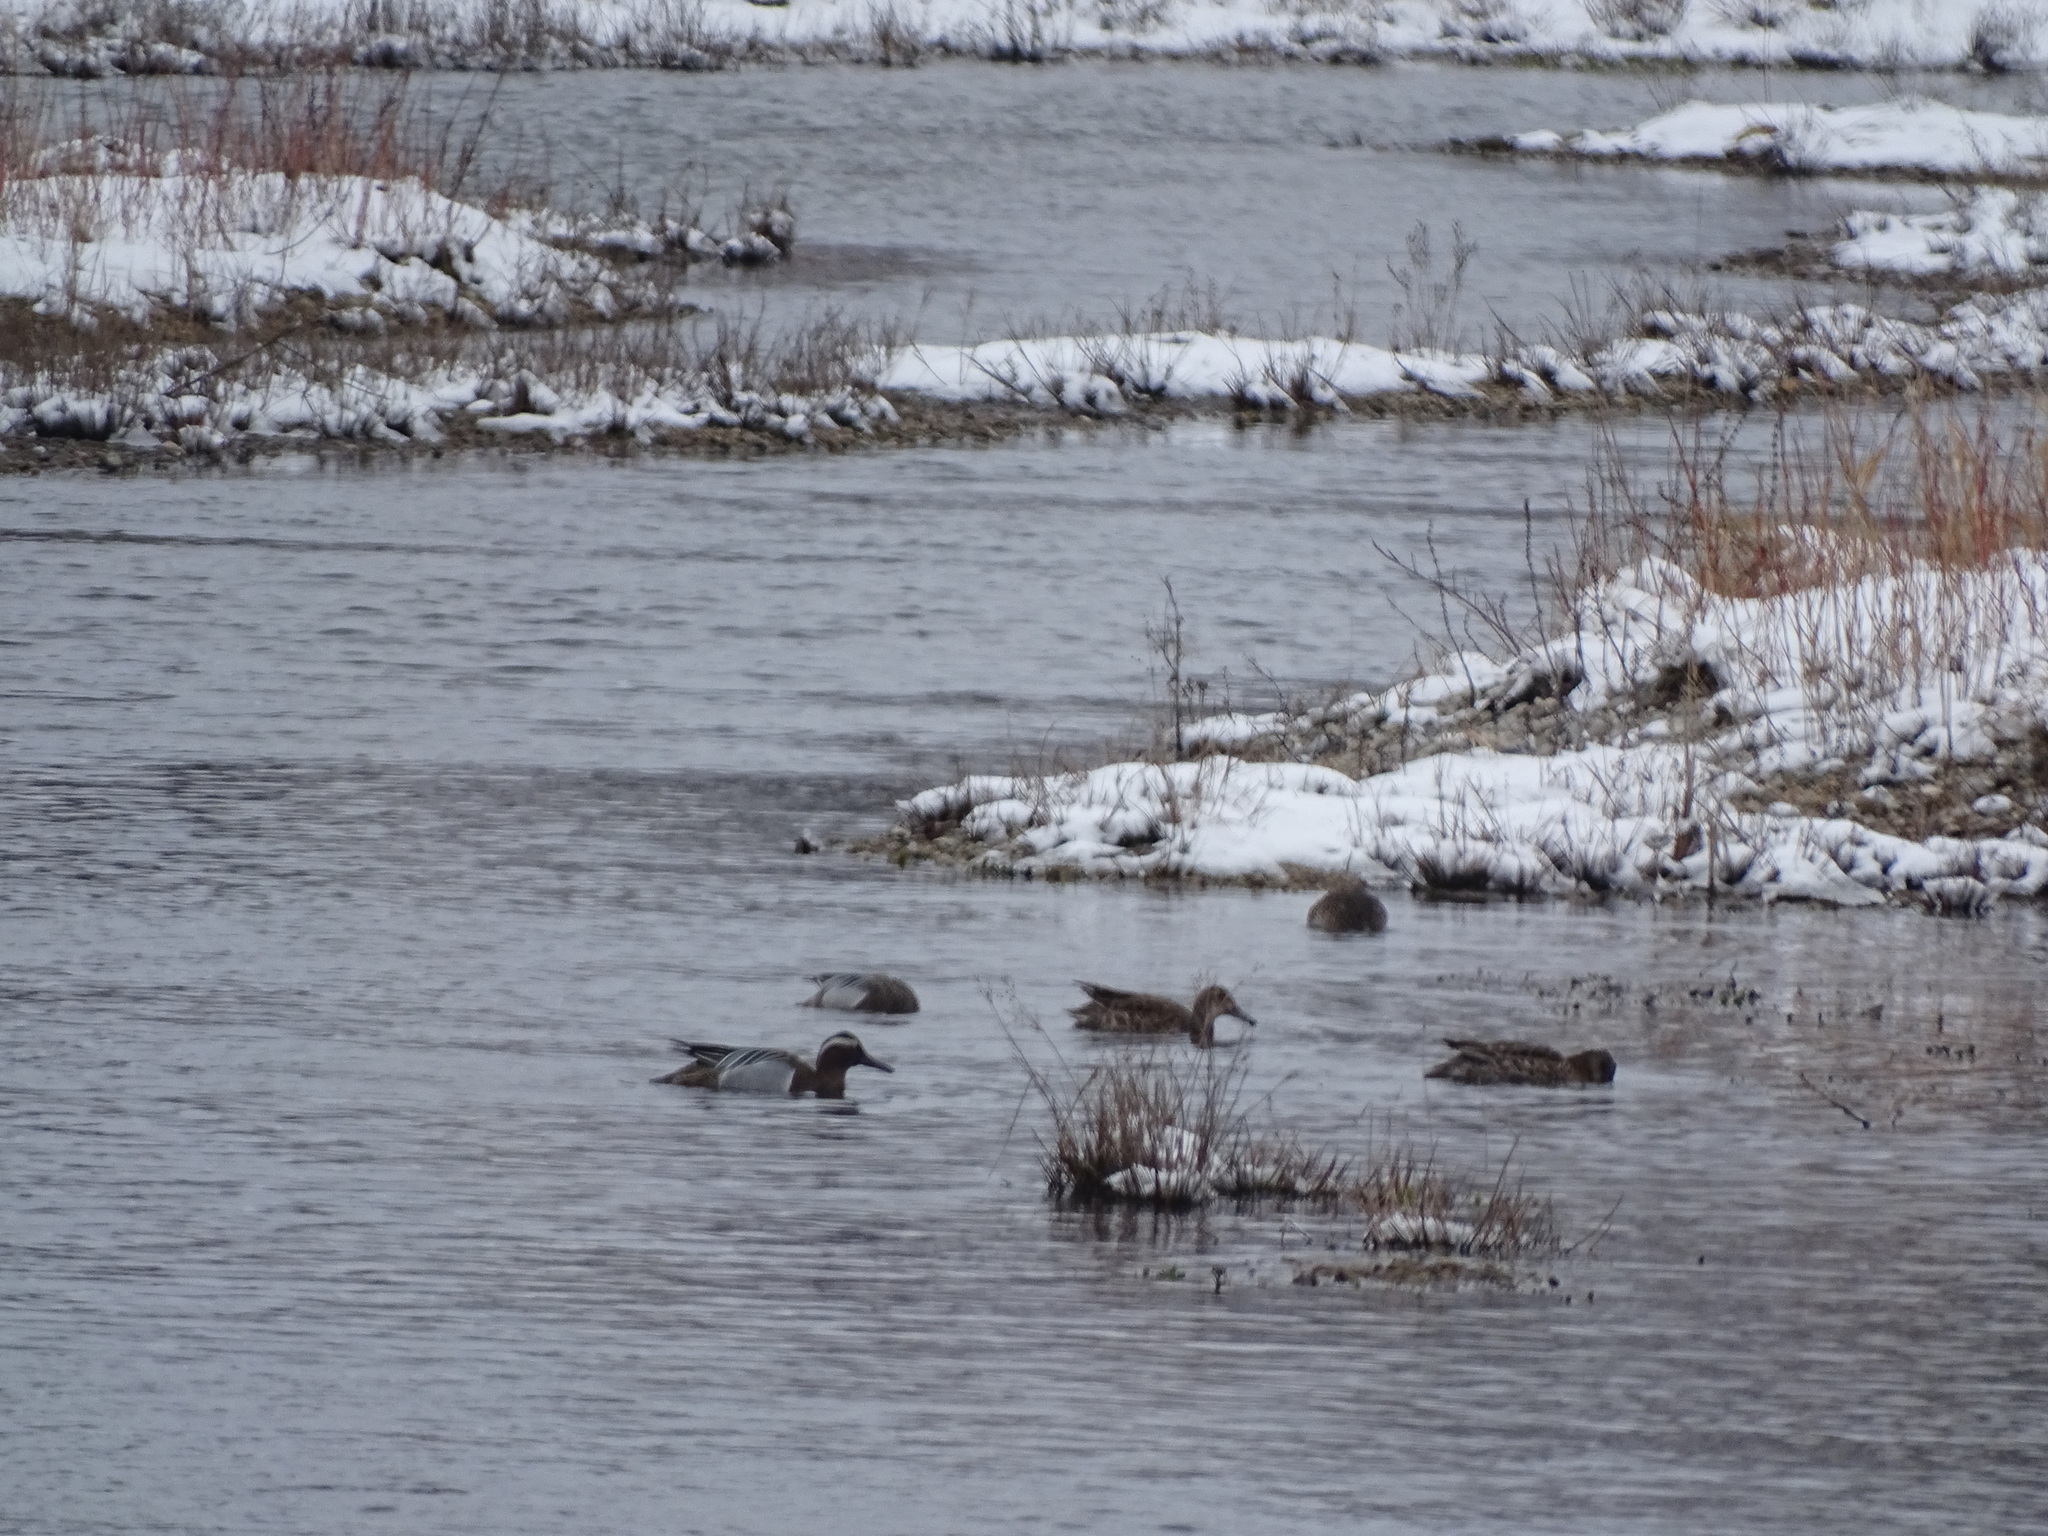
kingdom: Animalia
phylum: Chordata
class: Aves
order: Anseriformes
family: Anatidae
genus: Spatula
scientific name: Spatula querquedula
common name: Garganey
